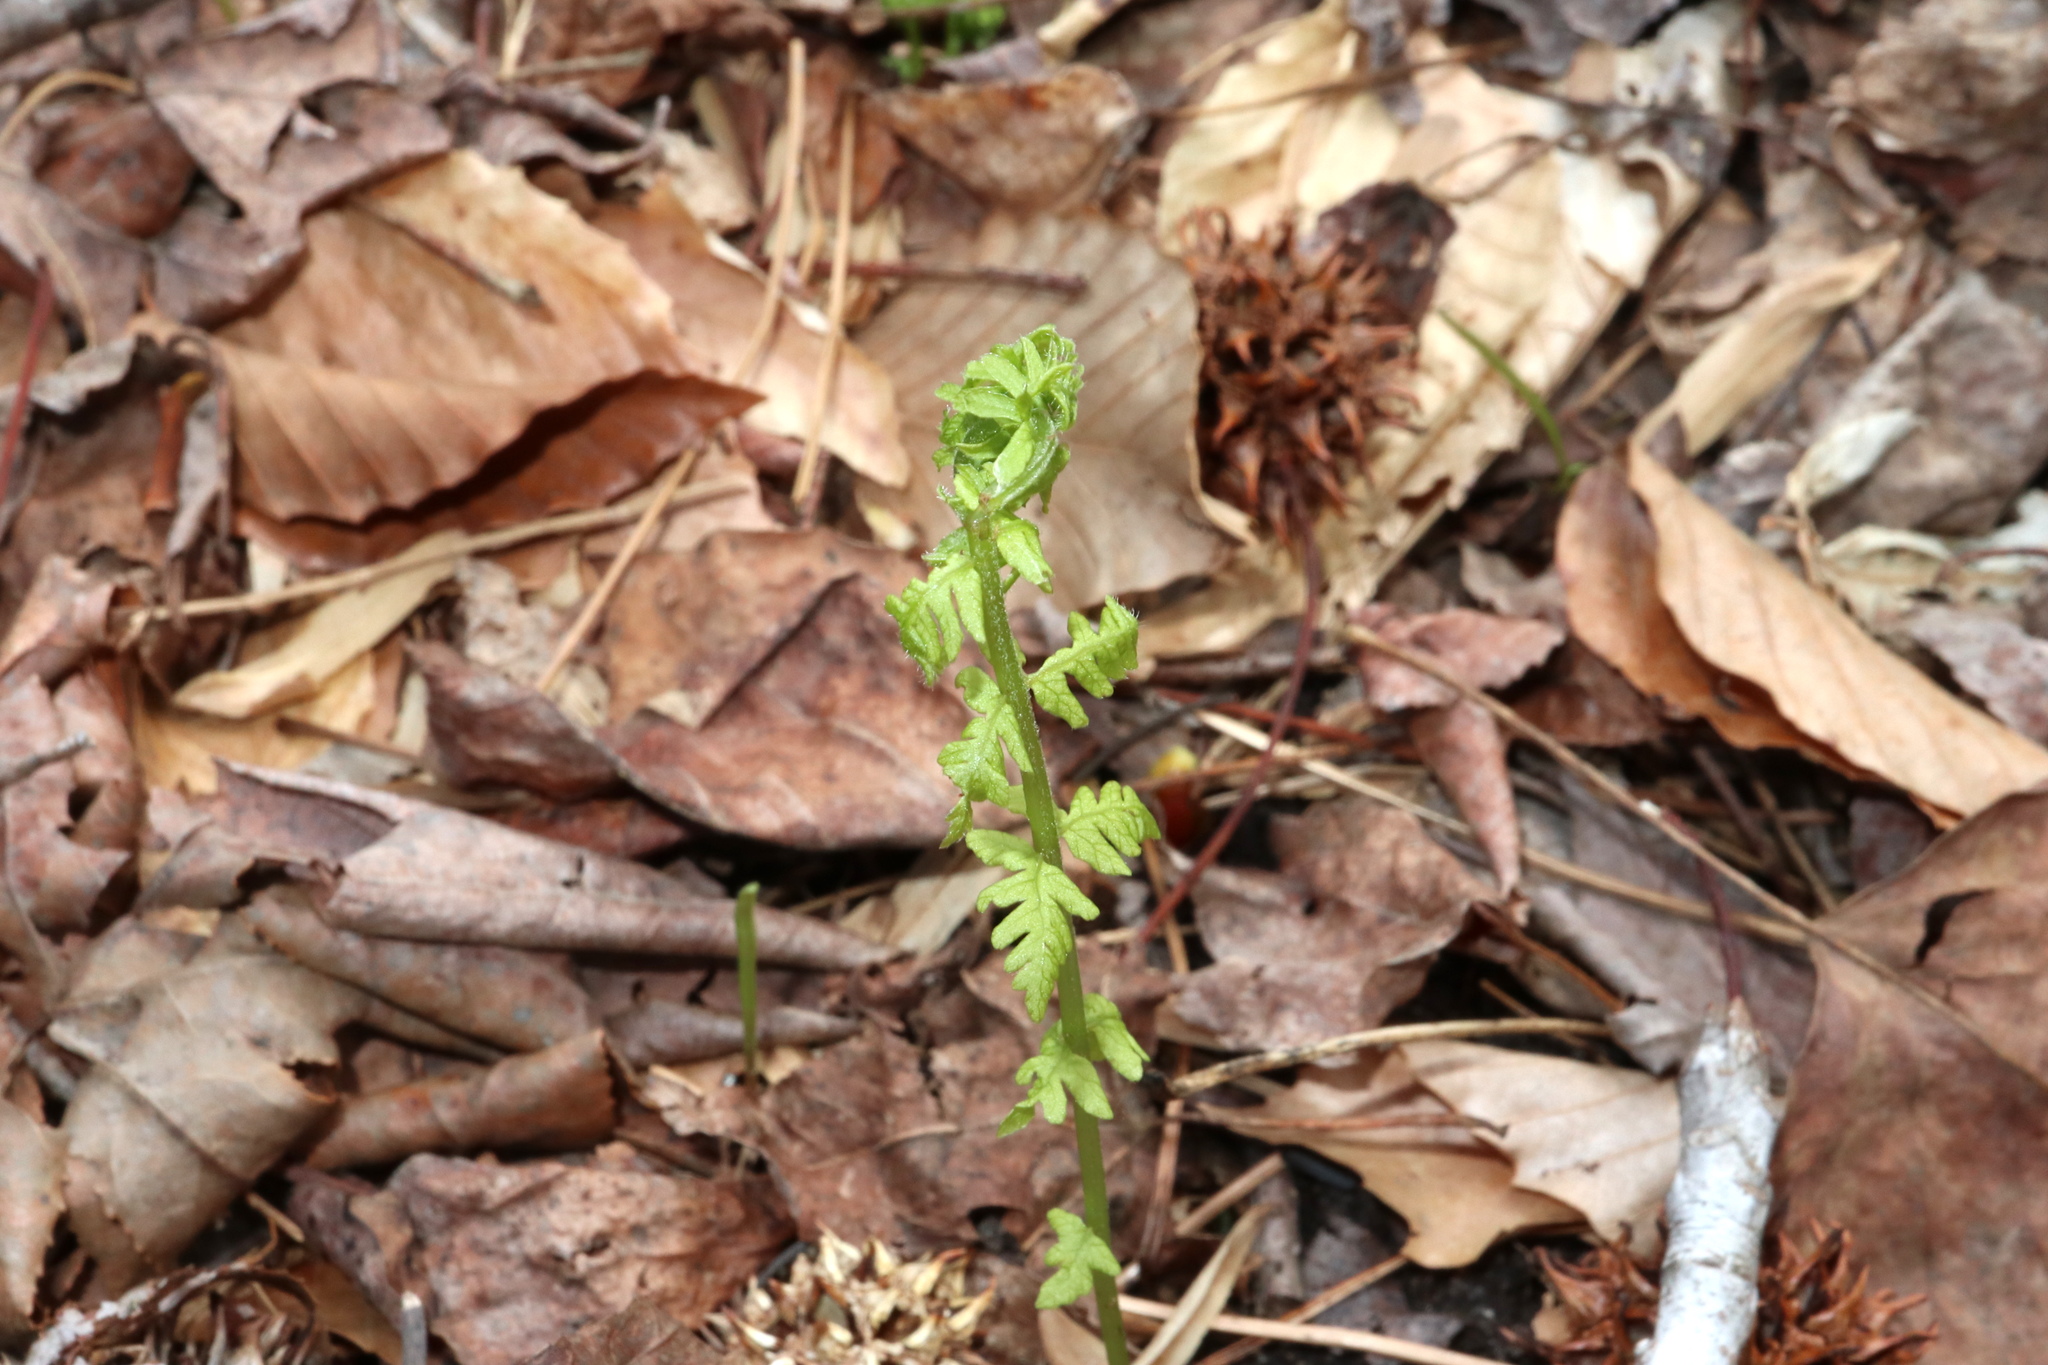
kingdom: Plantae
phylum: Tracheophyta
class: Polypodiopsida
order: Polypodiales
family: Thelypteridaceae
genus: Amauropelta
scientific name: Amauropelta noveboracensis
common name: New york fern
